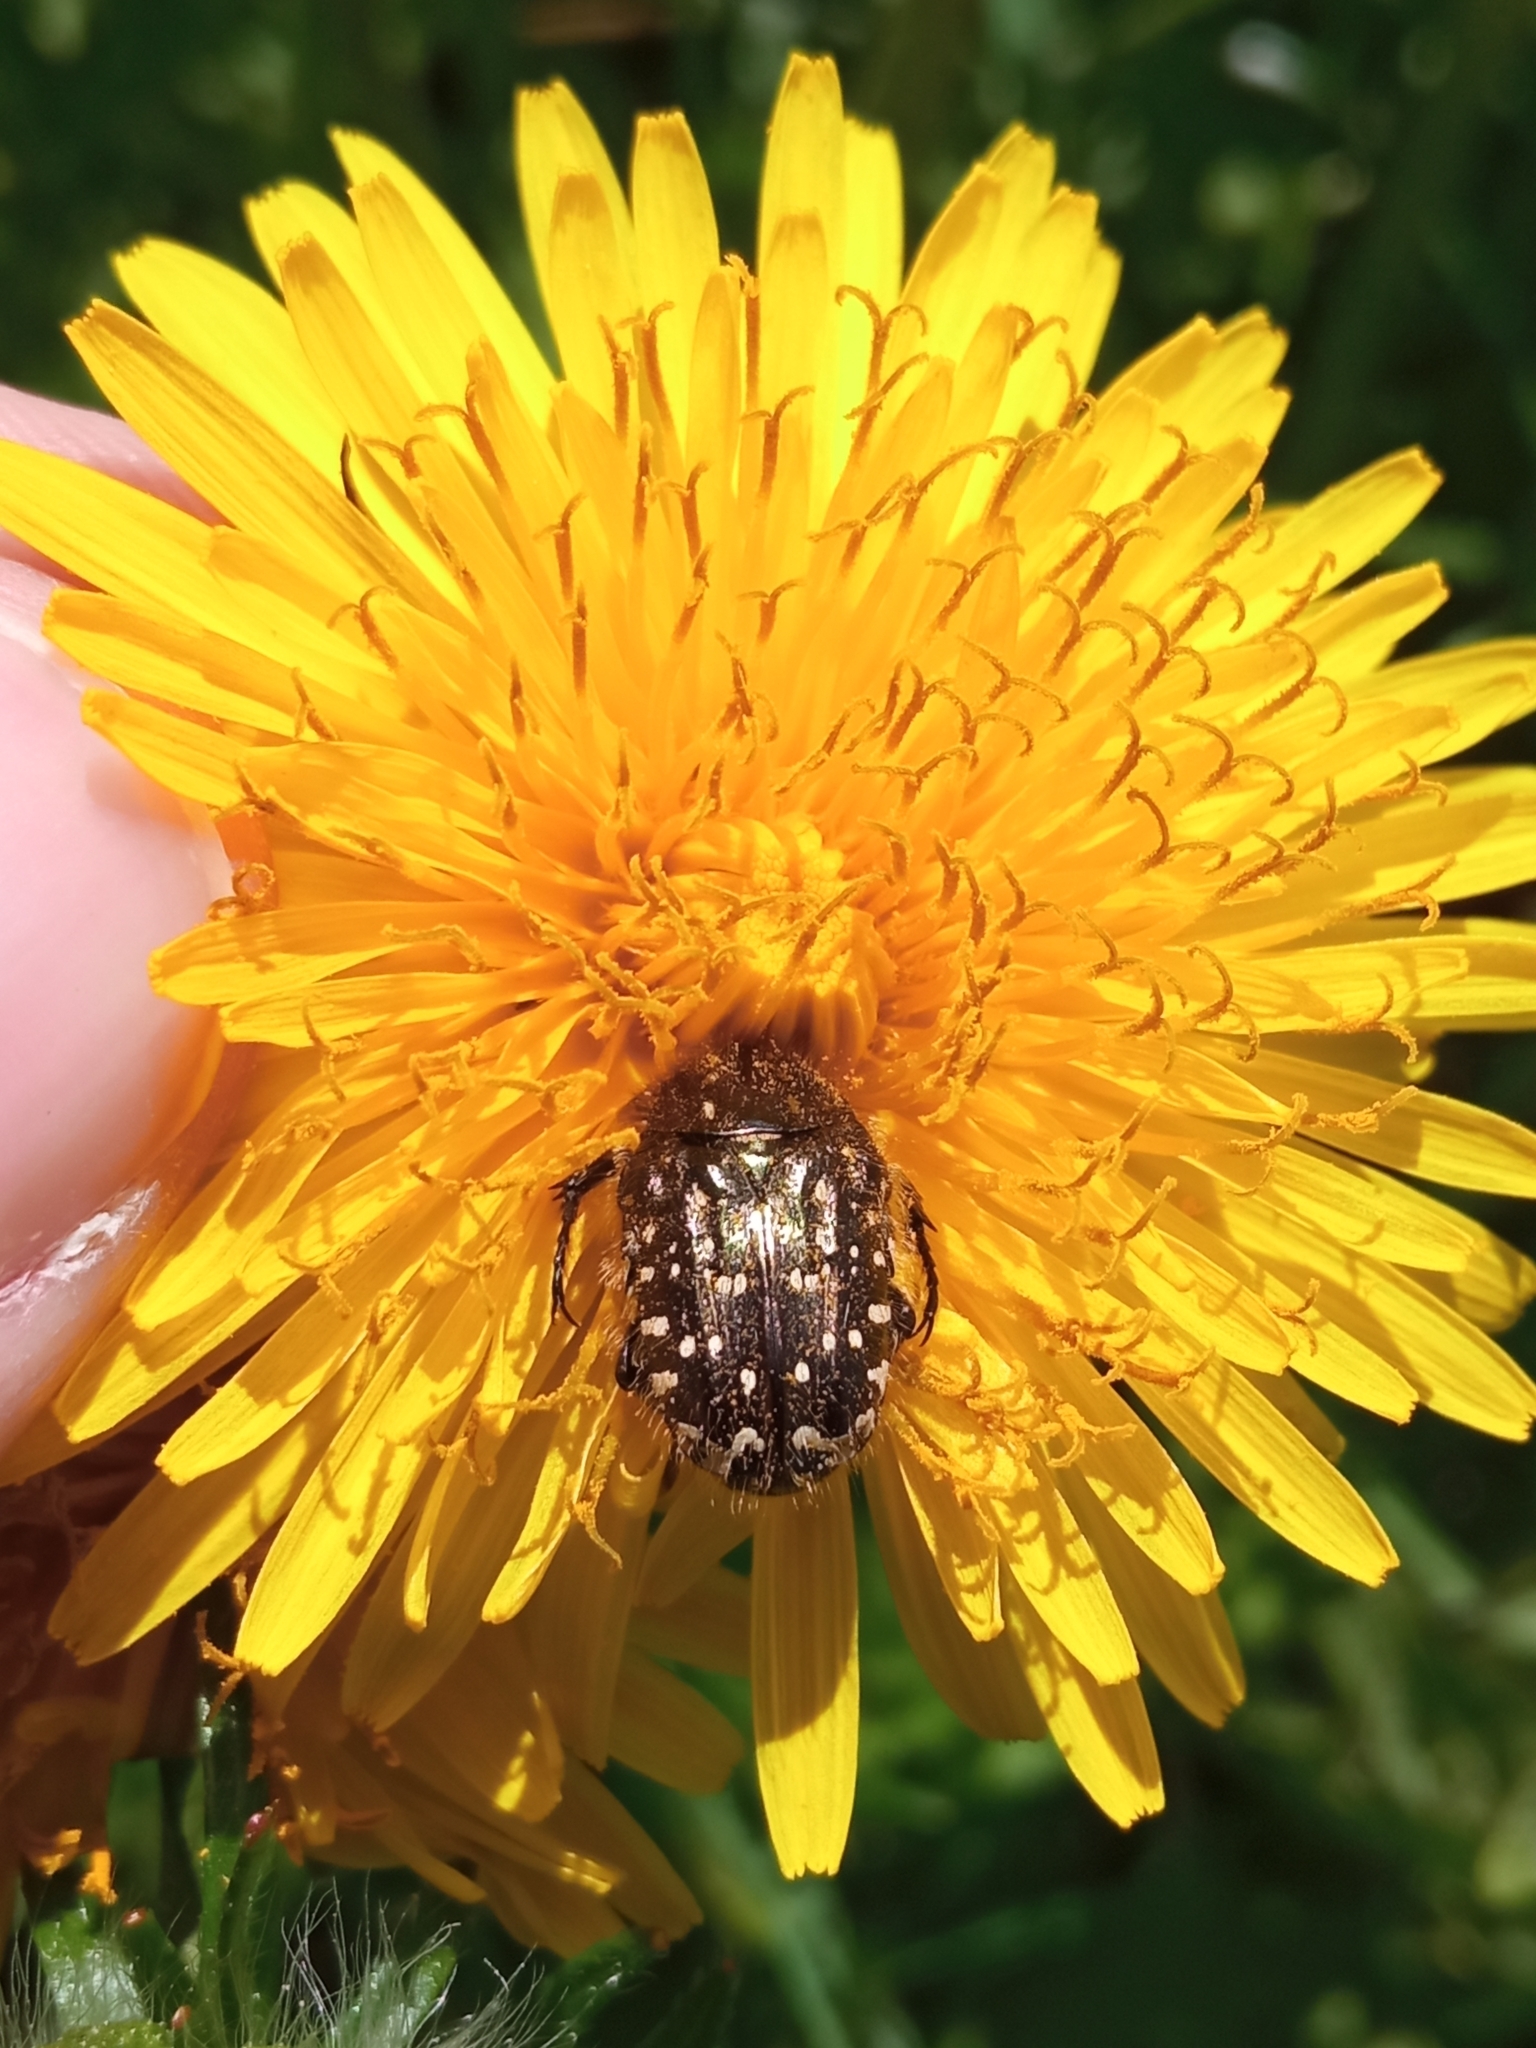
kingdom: Animalia
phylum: Arthropoda
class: Insecta
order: Coleoptera
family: Scarabaeidae
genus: Oxythyrea
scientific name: Oxythyrea funesta
